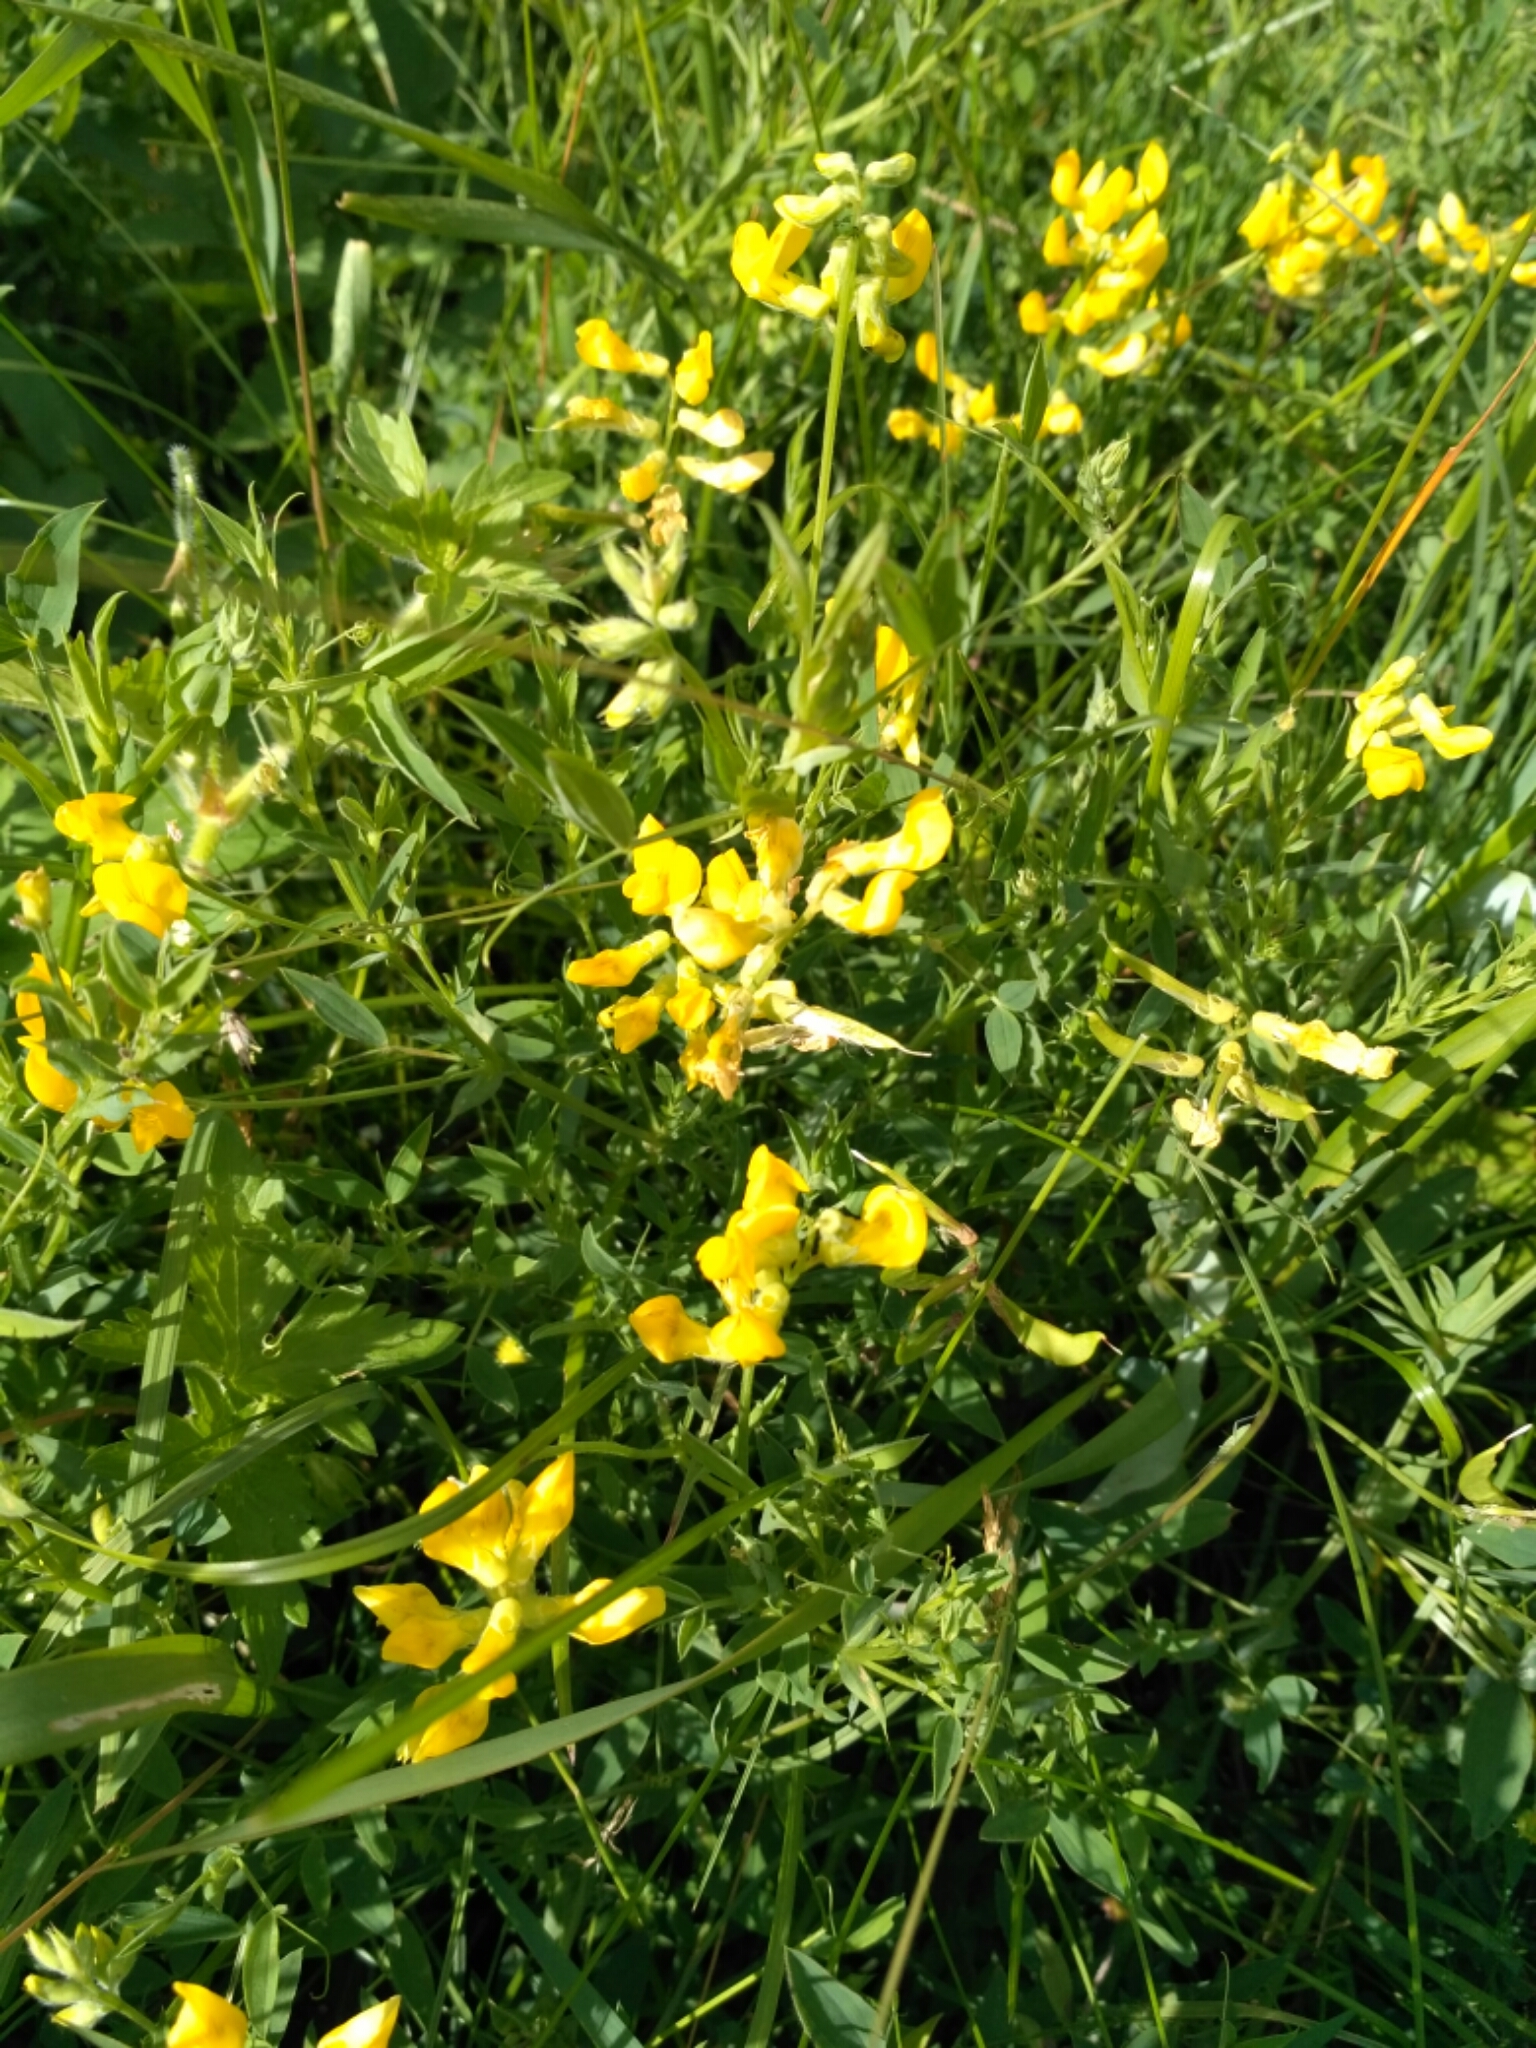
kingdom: Plantae
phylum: Tracheophyta
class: Magnoliopsida
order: Fabales
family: Fabaceae
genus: Lathyrus
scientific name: Lathyrus pratensis
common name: Meadow vetchling
